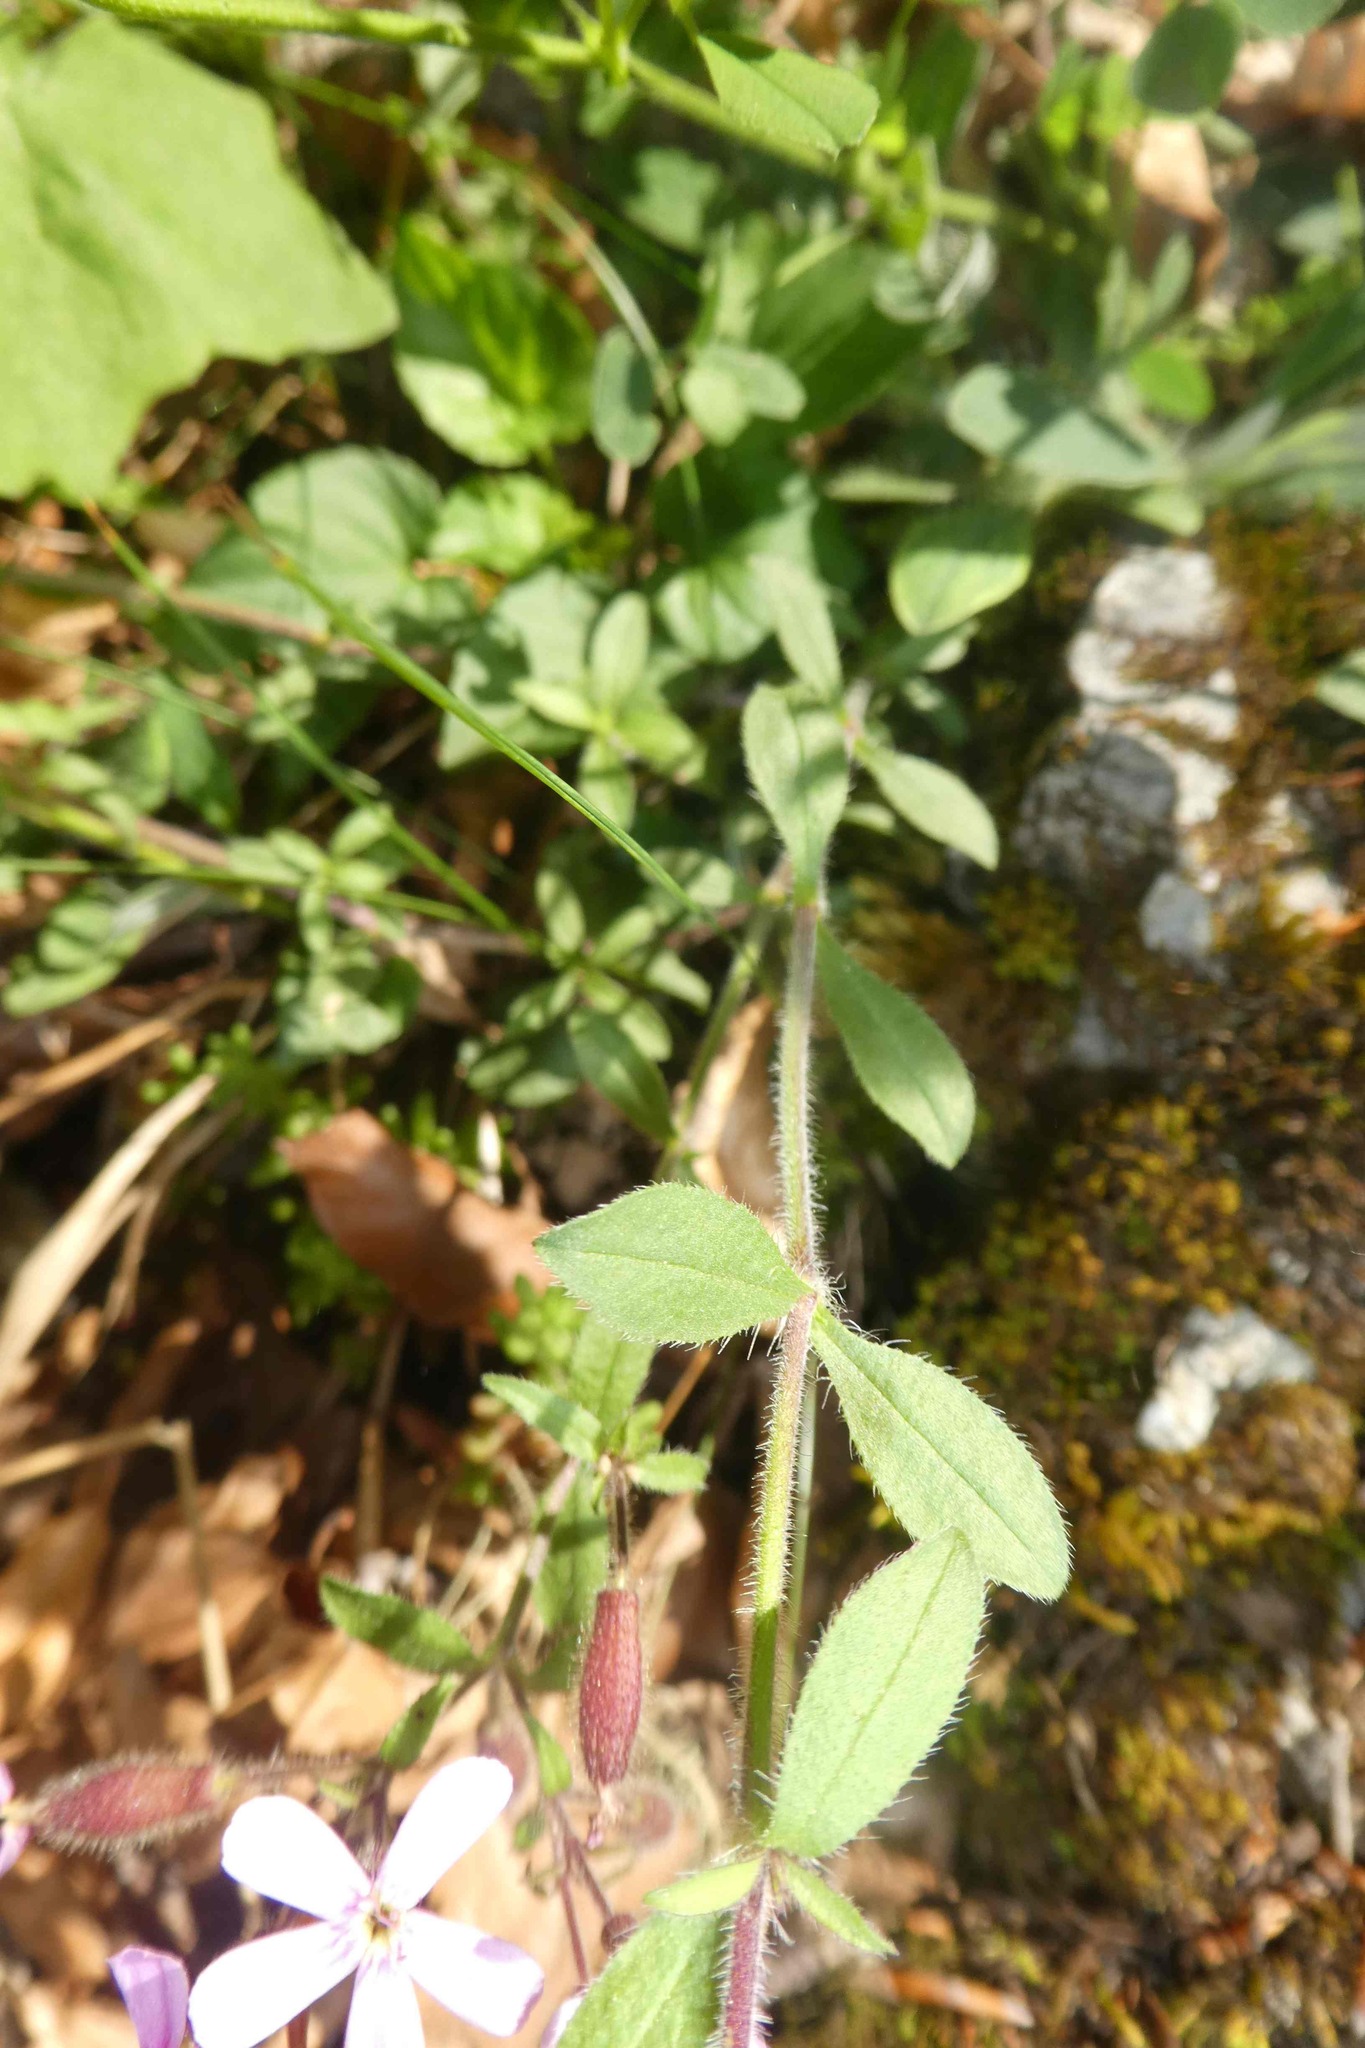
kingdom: Plantae
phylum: Tracheophyta
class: Magnoliopsida
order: Caryophyllales
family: Caryophyllaceae
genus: Saponaria
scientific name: Saponaria ocymoides
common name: Rock soapwort
